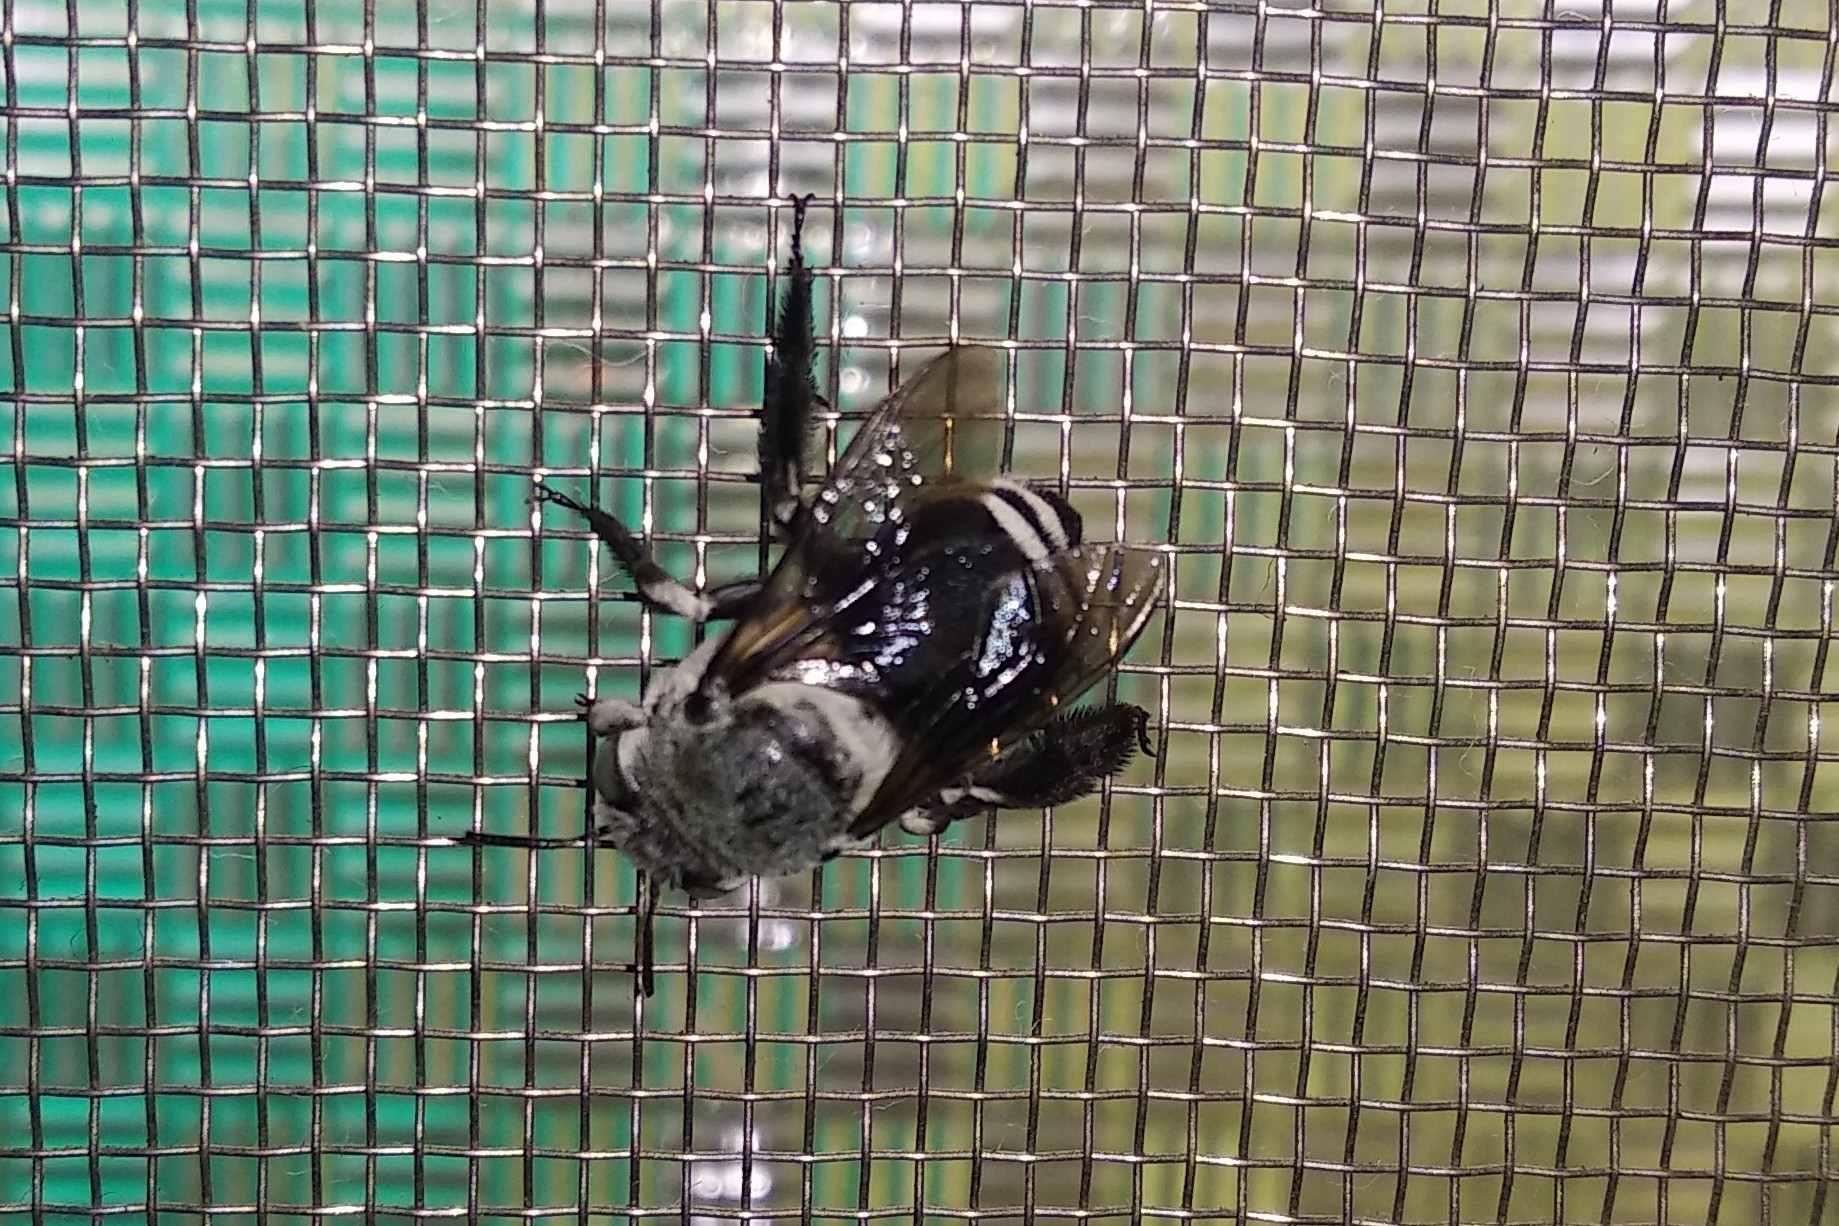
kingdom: Animalia
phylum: Arthropoda
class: Insecta
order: Hymenoptera
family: Apidae
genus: Amegilla
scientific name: Amegilla dizona
